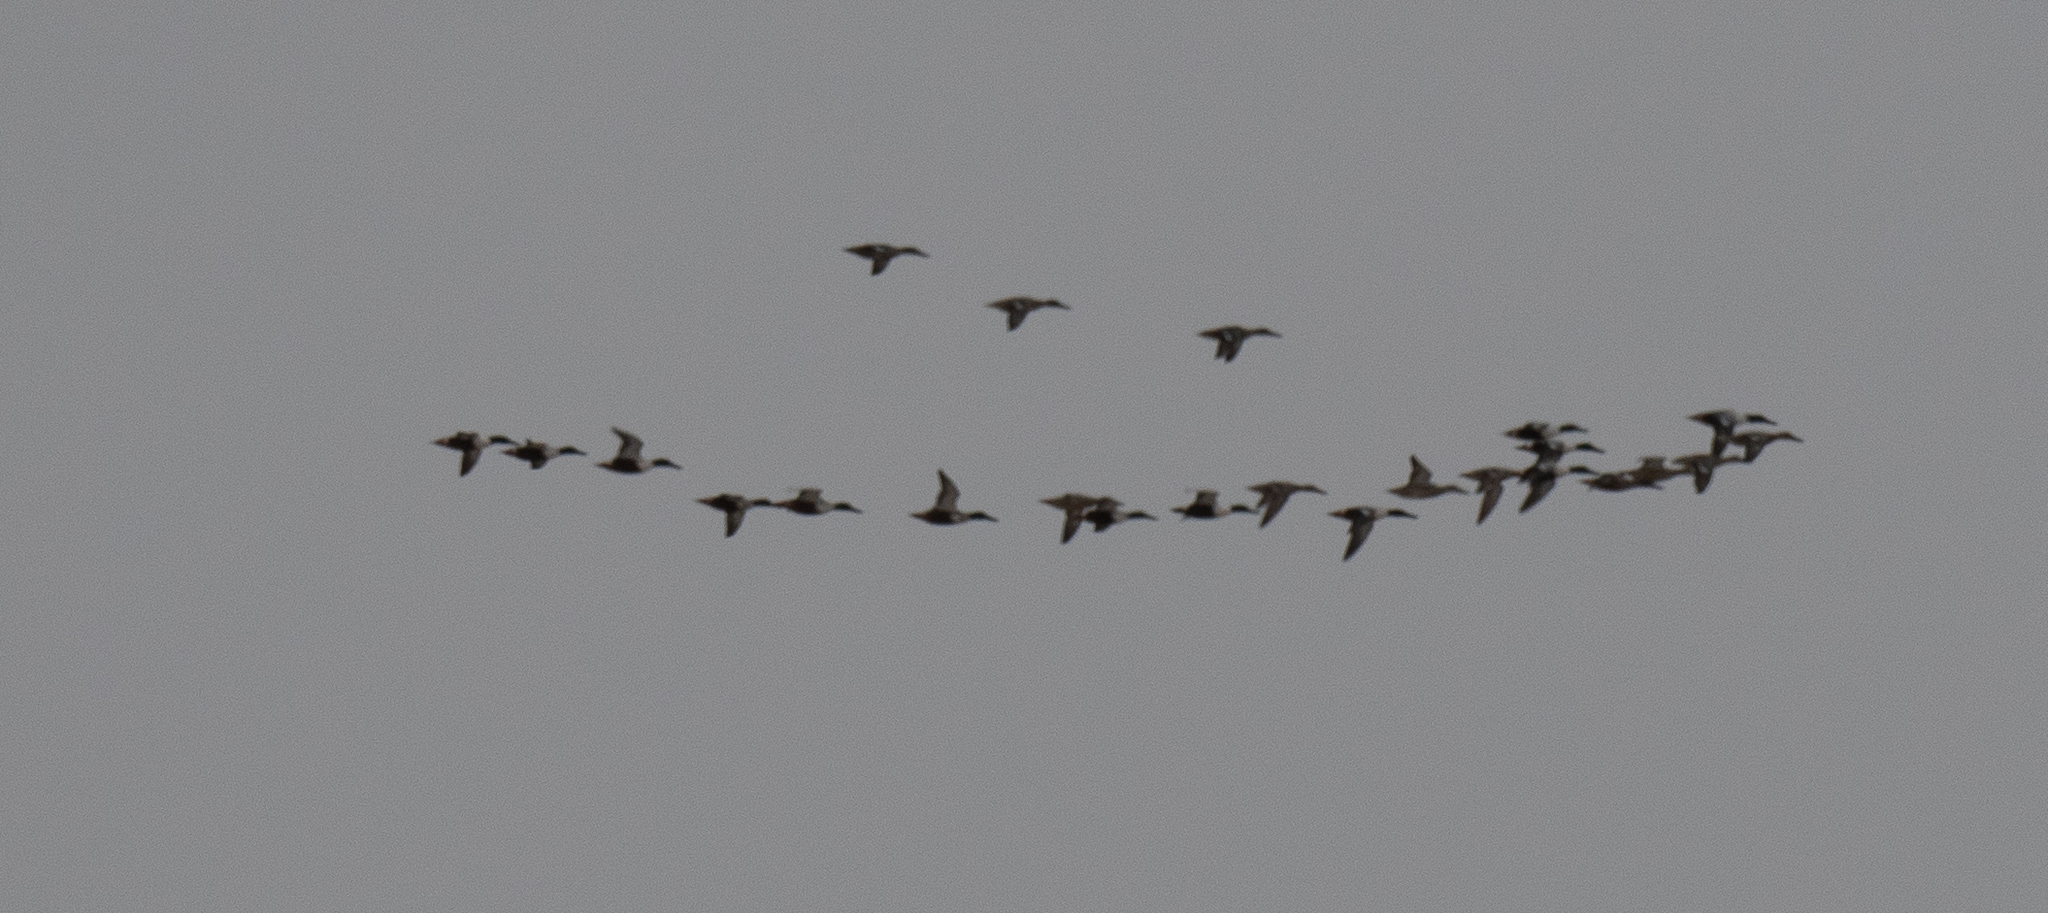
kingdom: Animalia
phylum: Chordata
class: Aves
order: Anseriformes
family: Anatidae
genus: Spatula
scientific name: Spatula clypeata
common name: Northern shoveler
